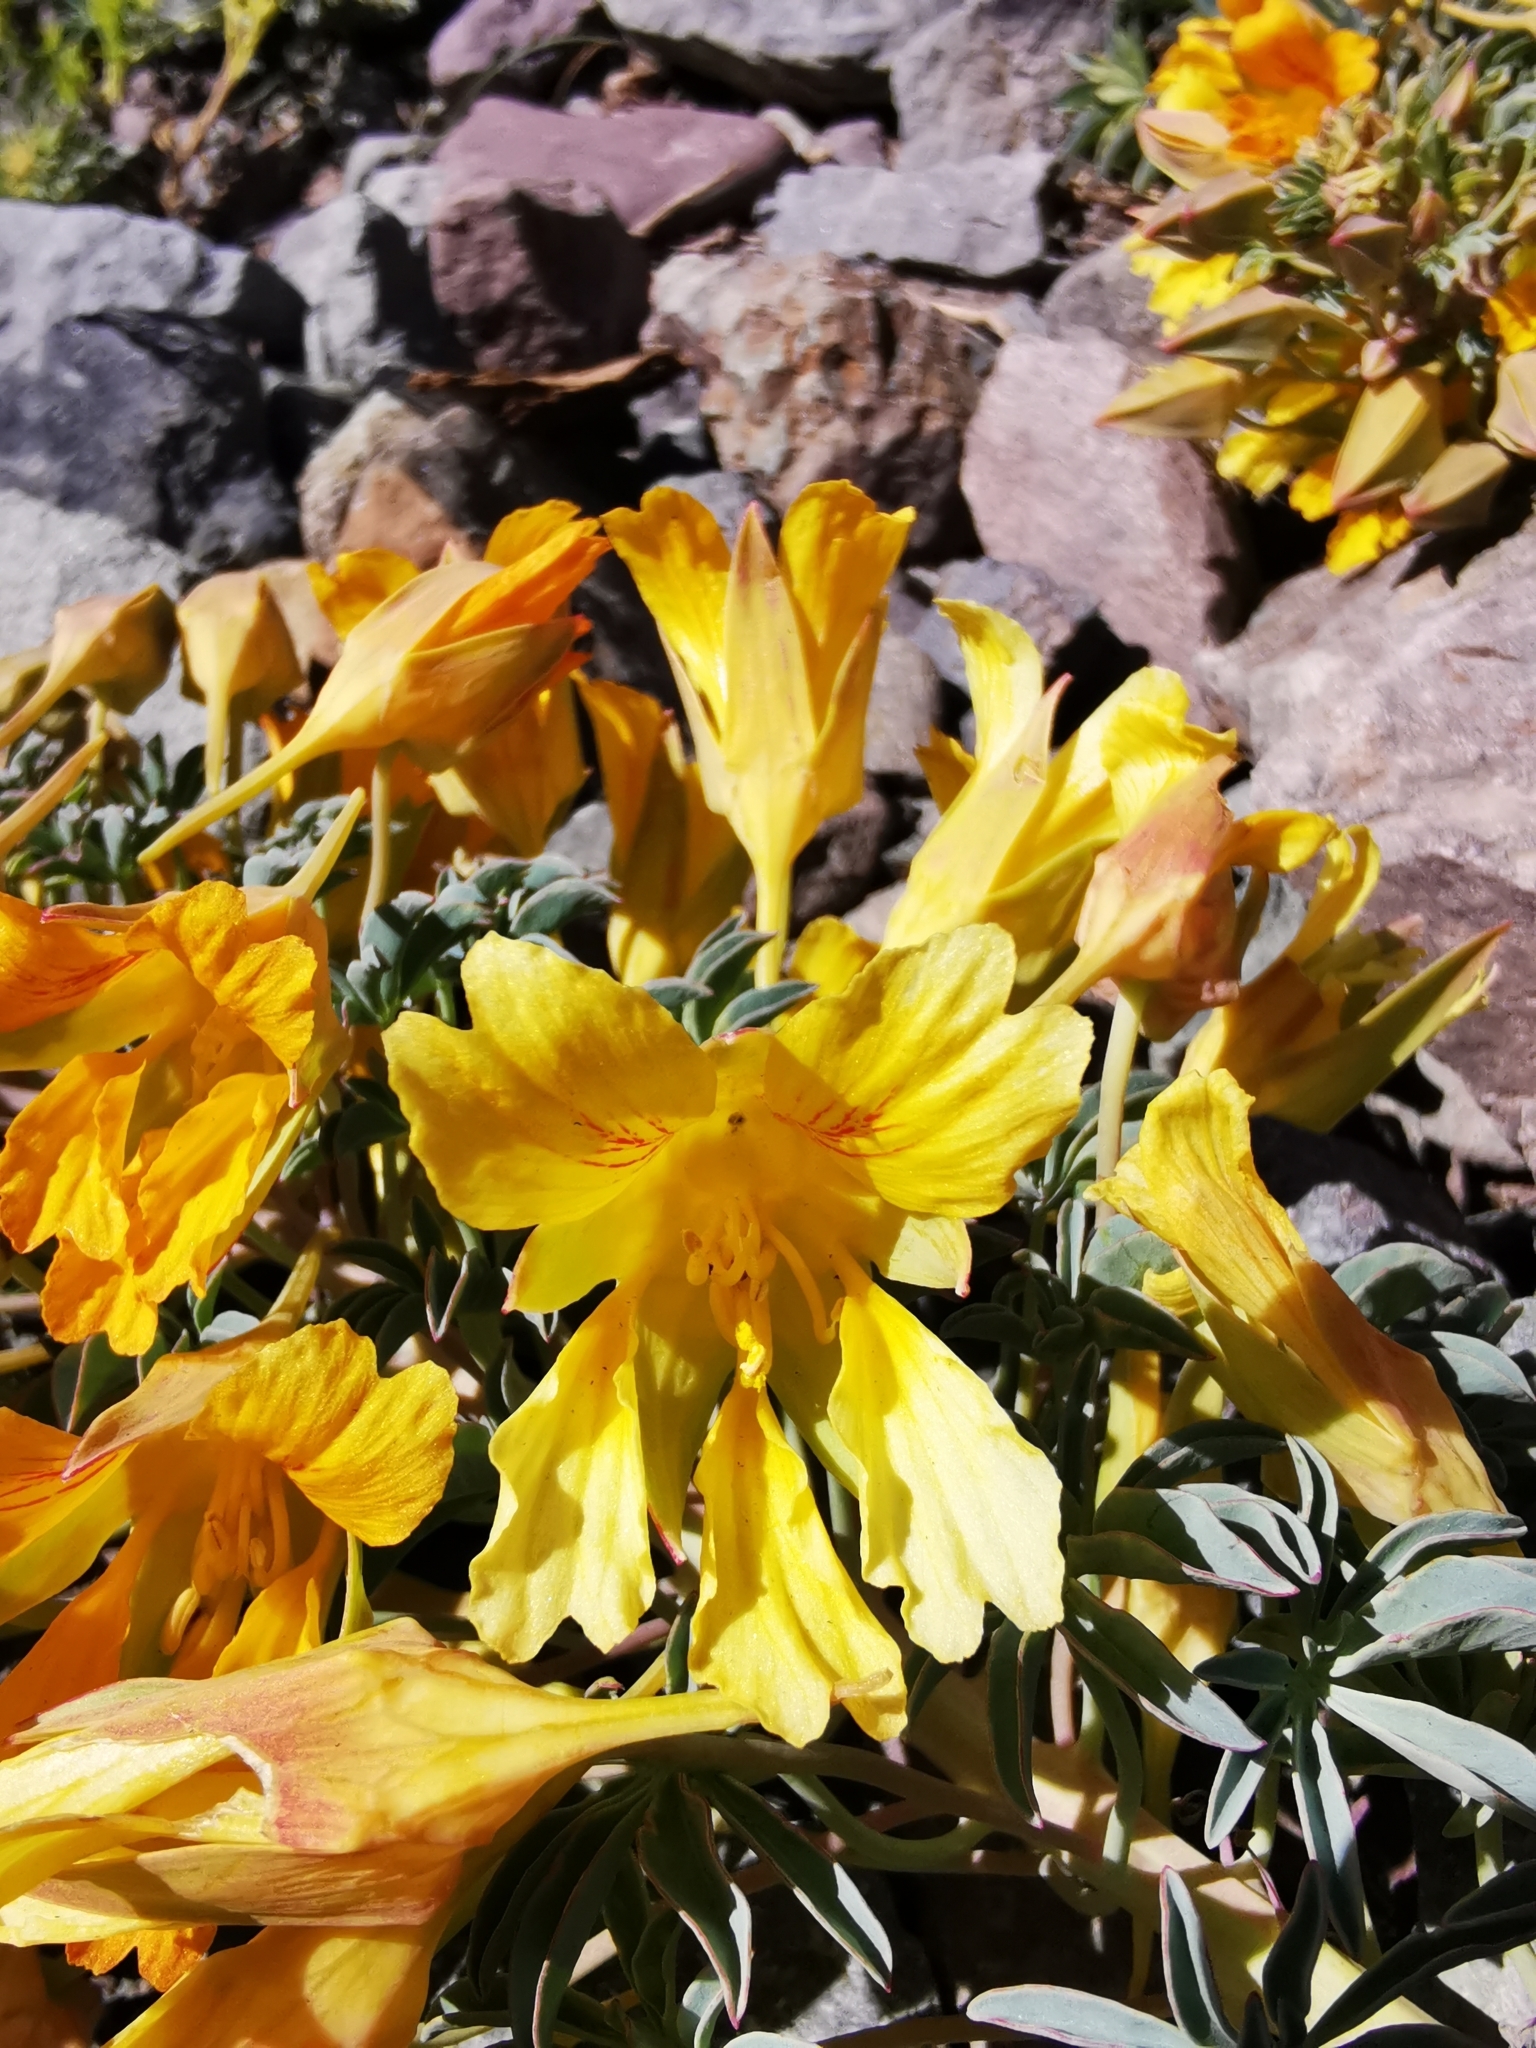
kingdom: Plantae
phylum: Tracheophyta
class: Magnoliopsida
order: Brassicales
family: Tropaeolaceae
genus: Tropaeolum
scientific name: Tropaeolum polyphyllum
